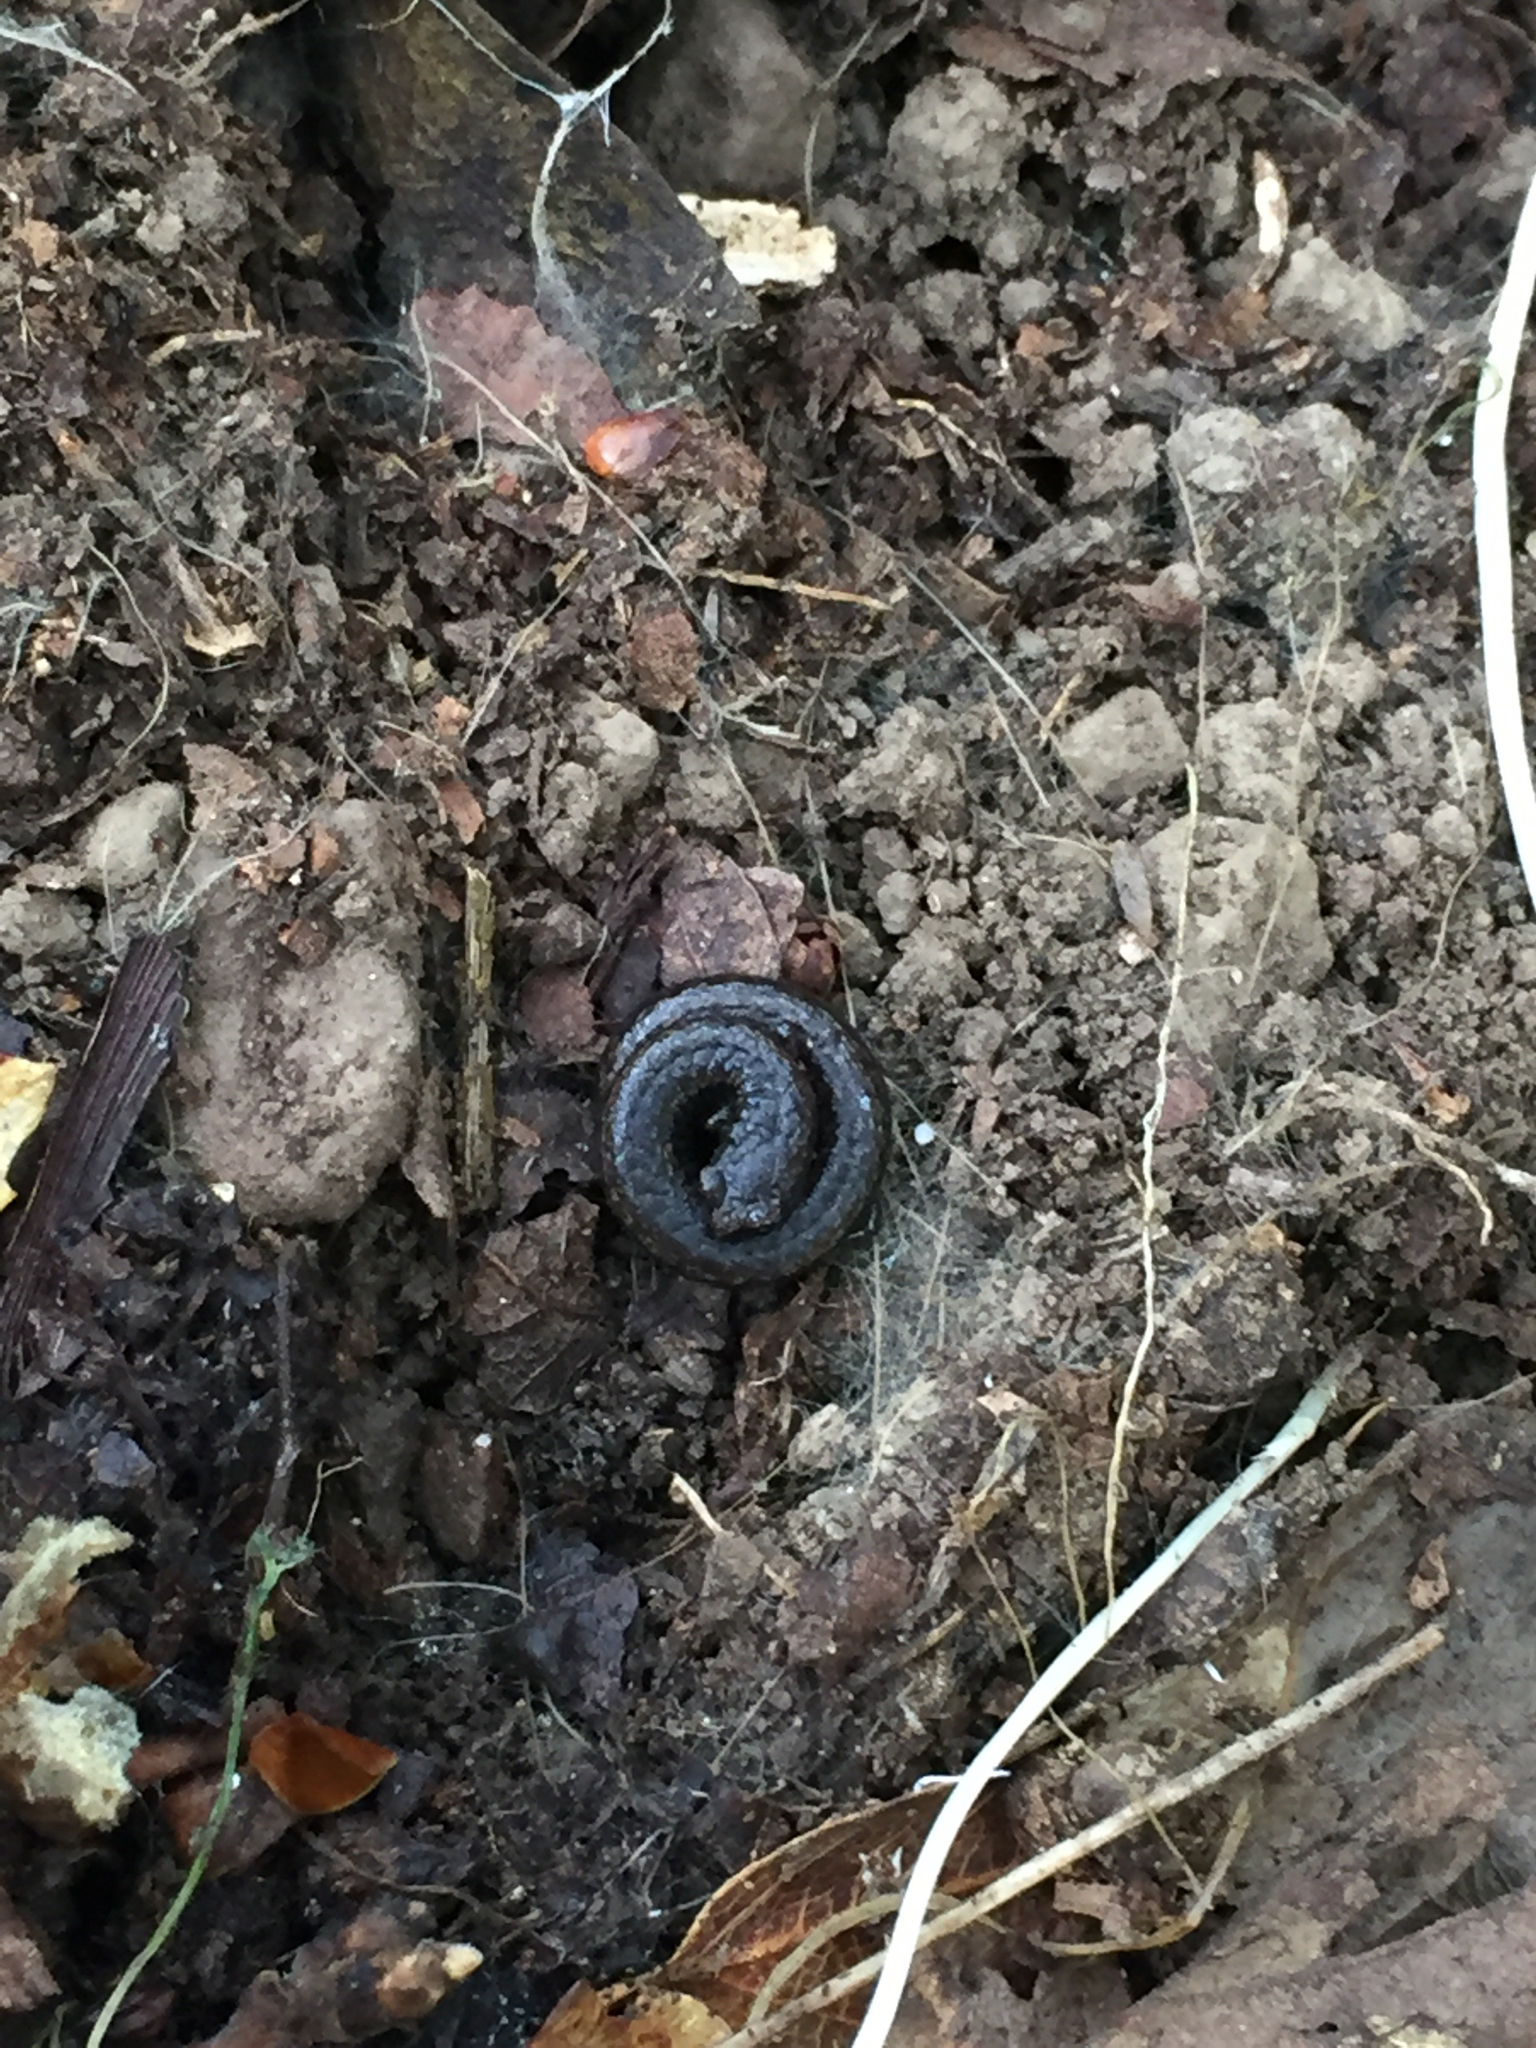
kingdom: Animalia
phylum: Chordata
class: Amphibia
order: Caudata
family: Plethodontidae
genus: Batrachoseps
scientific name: Batrachoseps attenuatus
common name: California slender salamander
